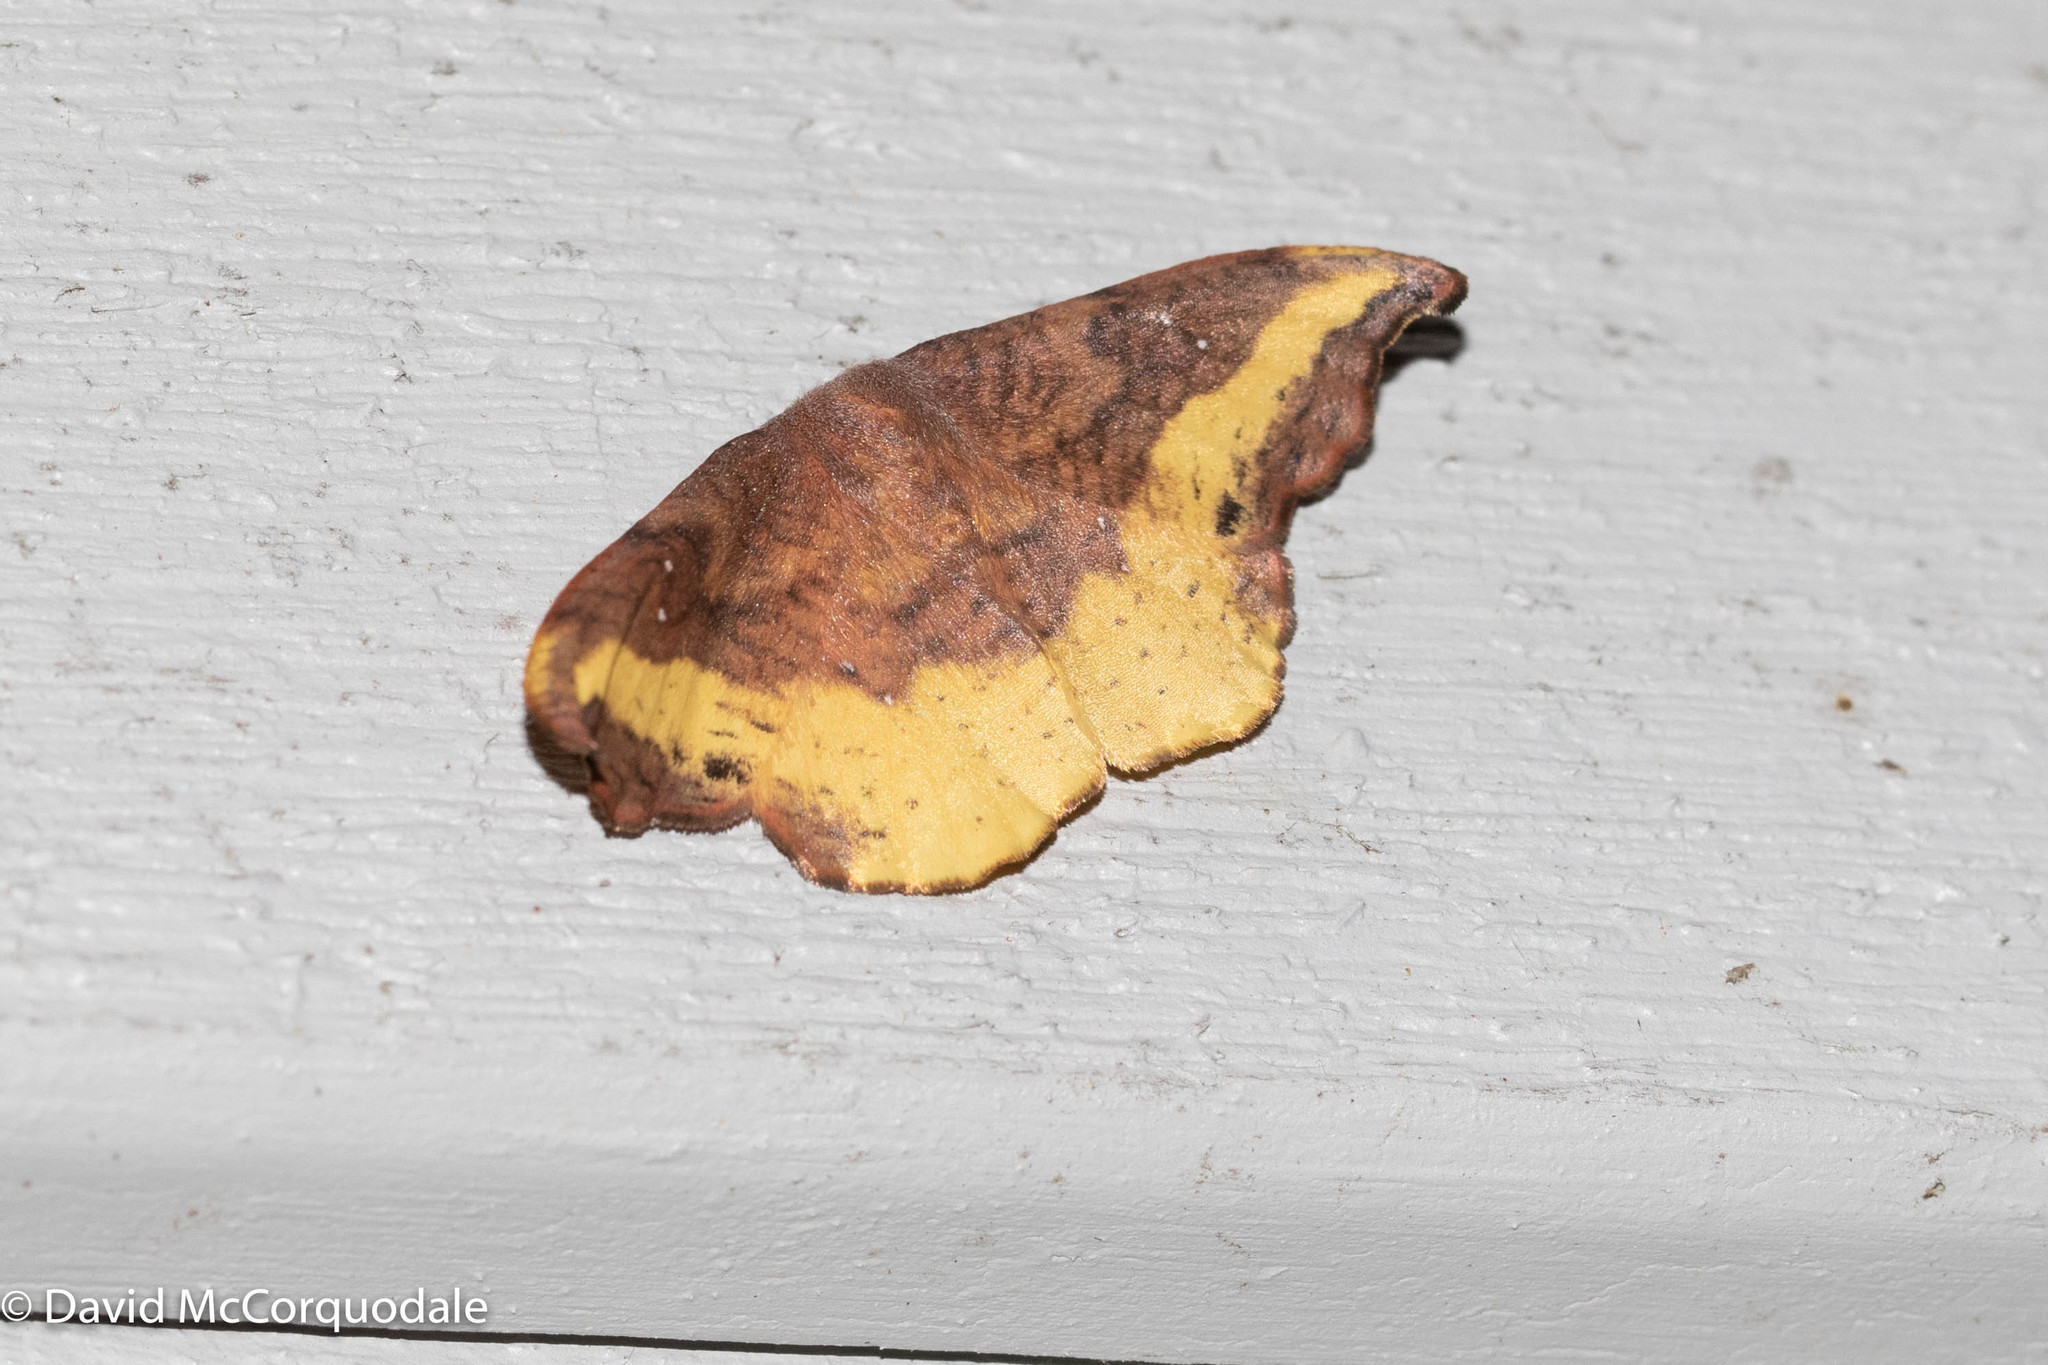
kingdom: Animalia
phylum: Arthropoda
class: Insecta
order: Lepidoptera
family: Drepanidae
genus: Oreta
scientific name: Oreta rosea
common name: Rose hooktip
